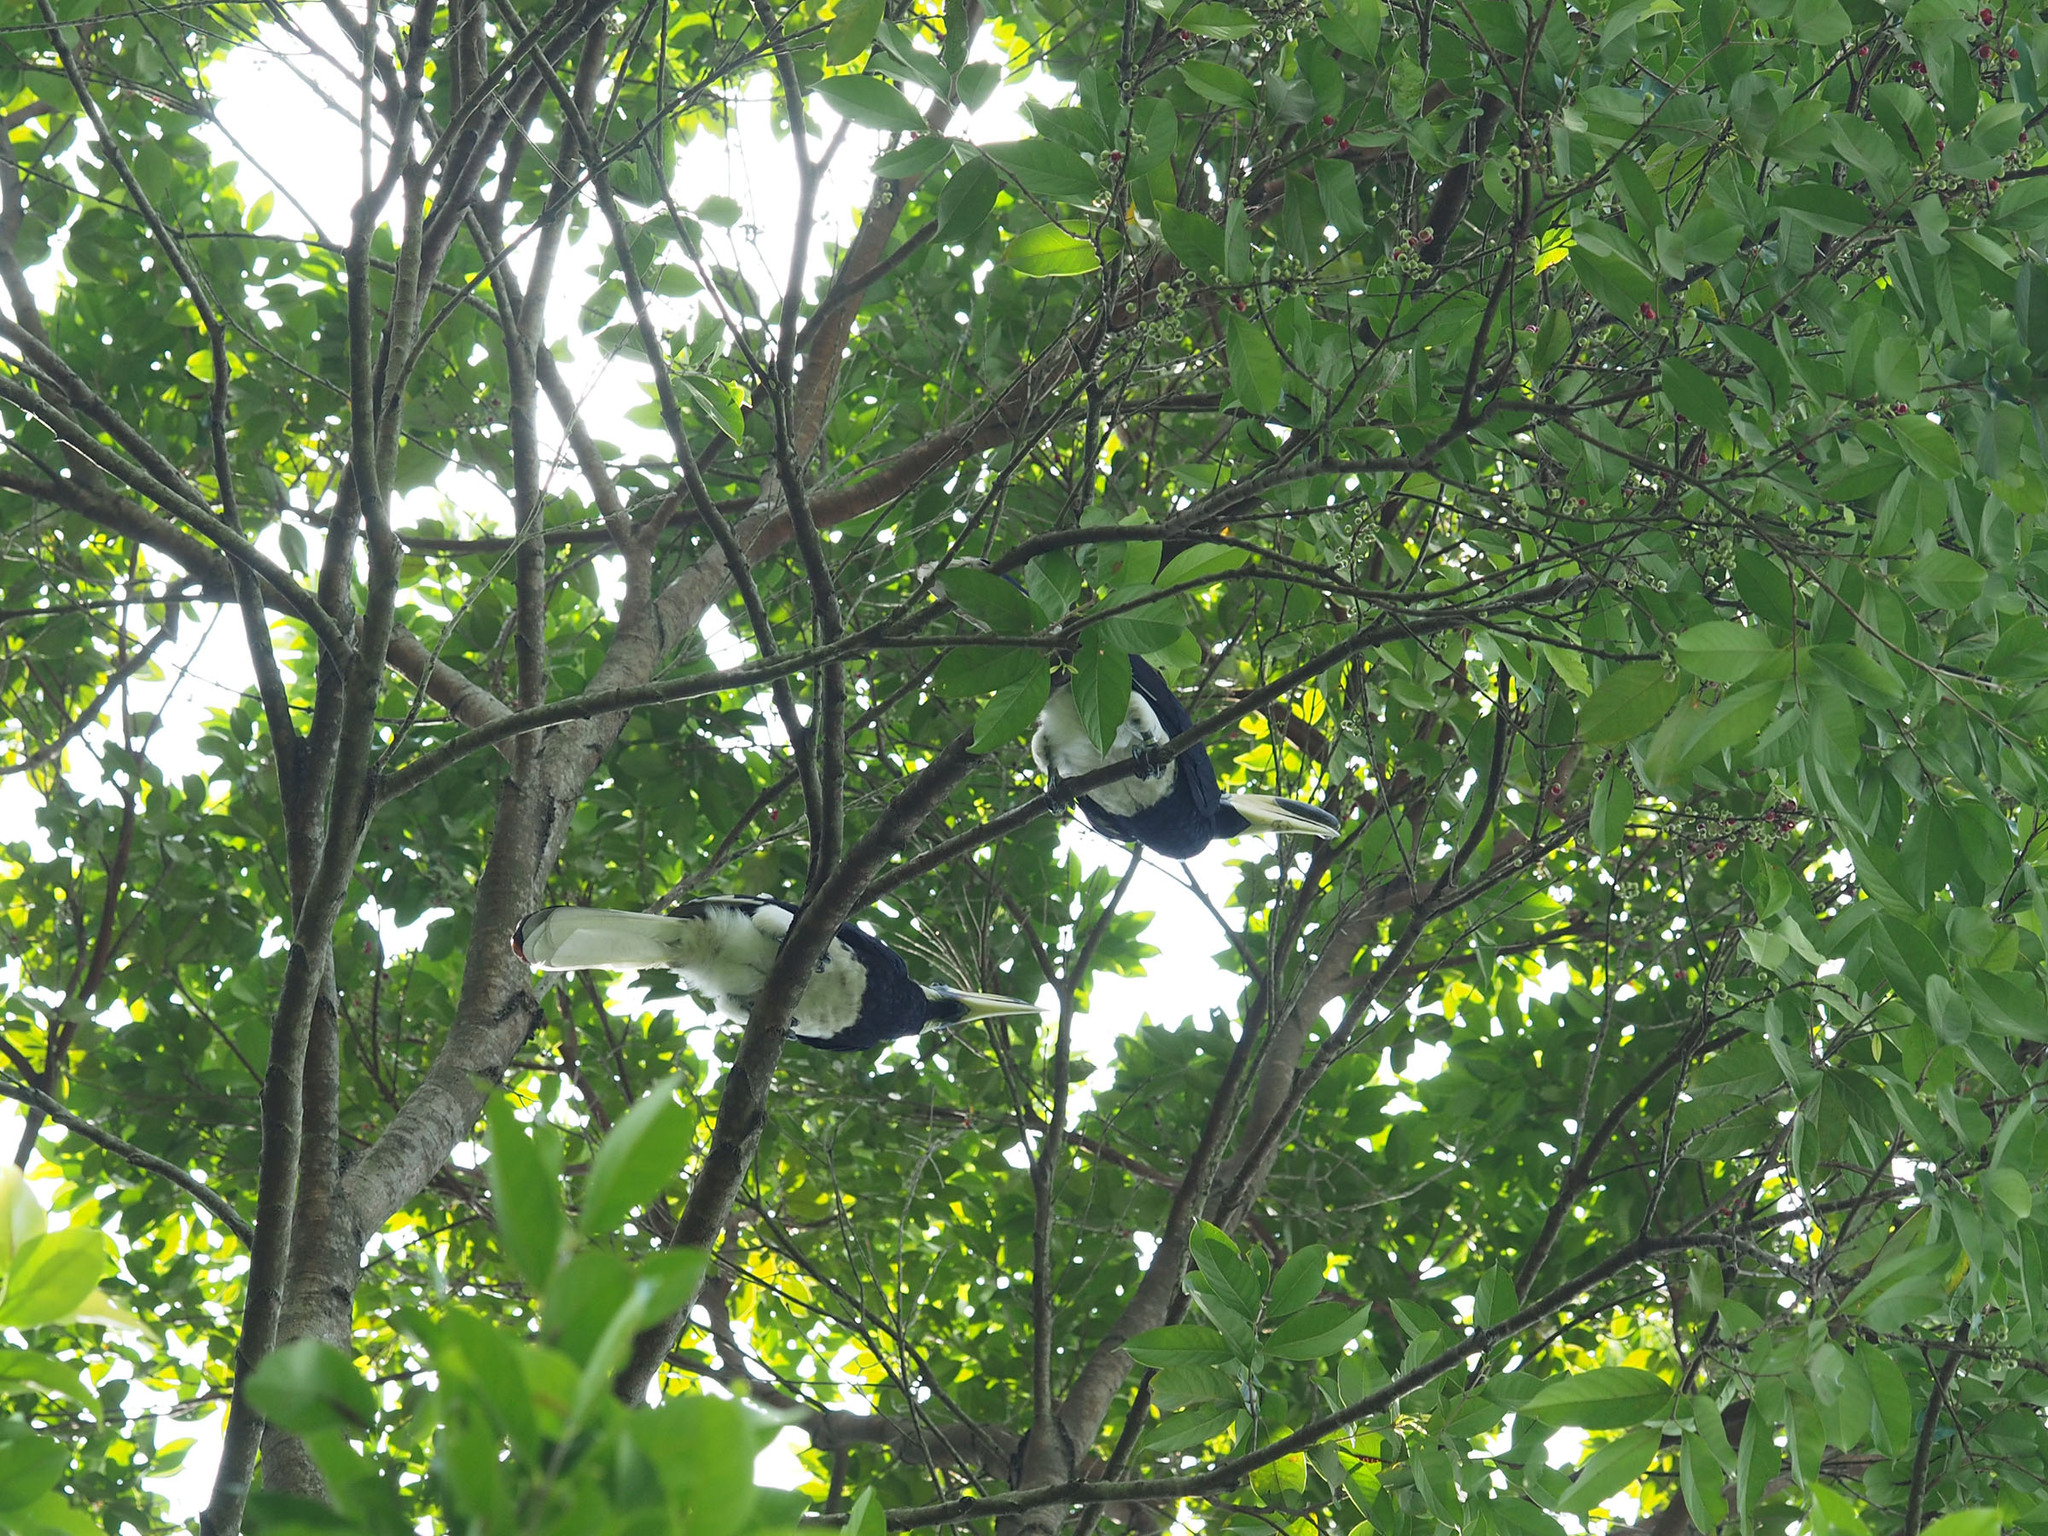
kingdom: Animalia
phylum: Chordata
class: Aves
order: Bucerotiformes
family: Bucerotidae
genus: Anthracoceros
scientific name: Anthracoceros albirostris
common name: Oriental pied-hornbill
